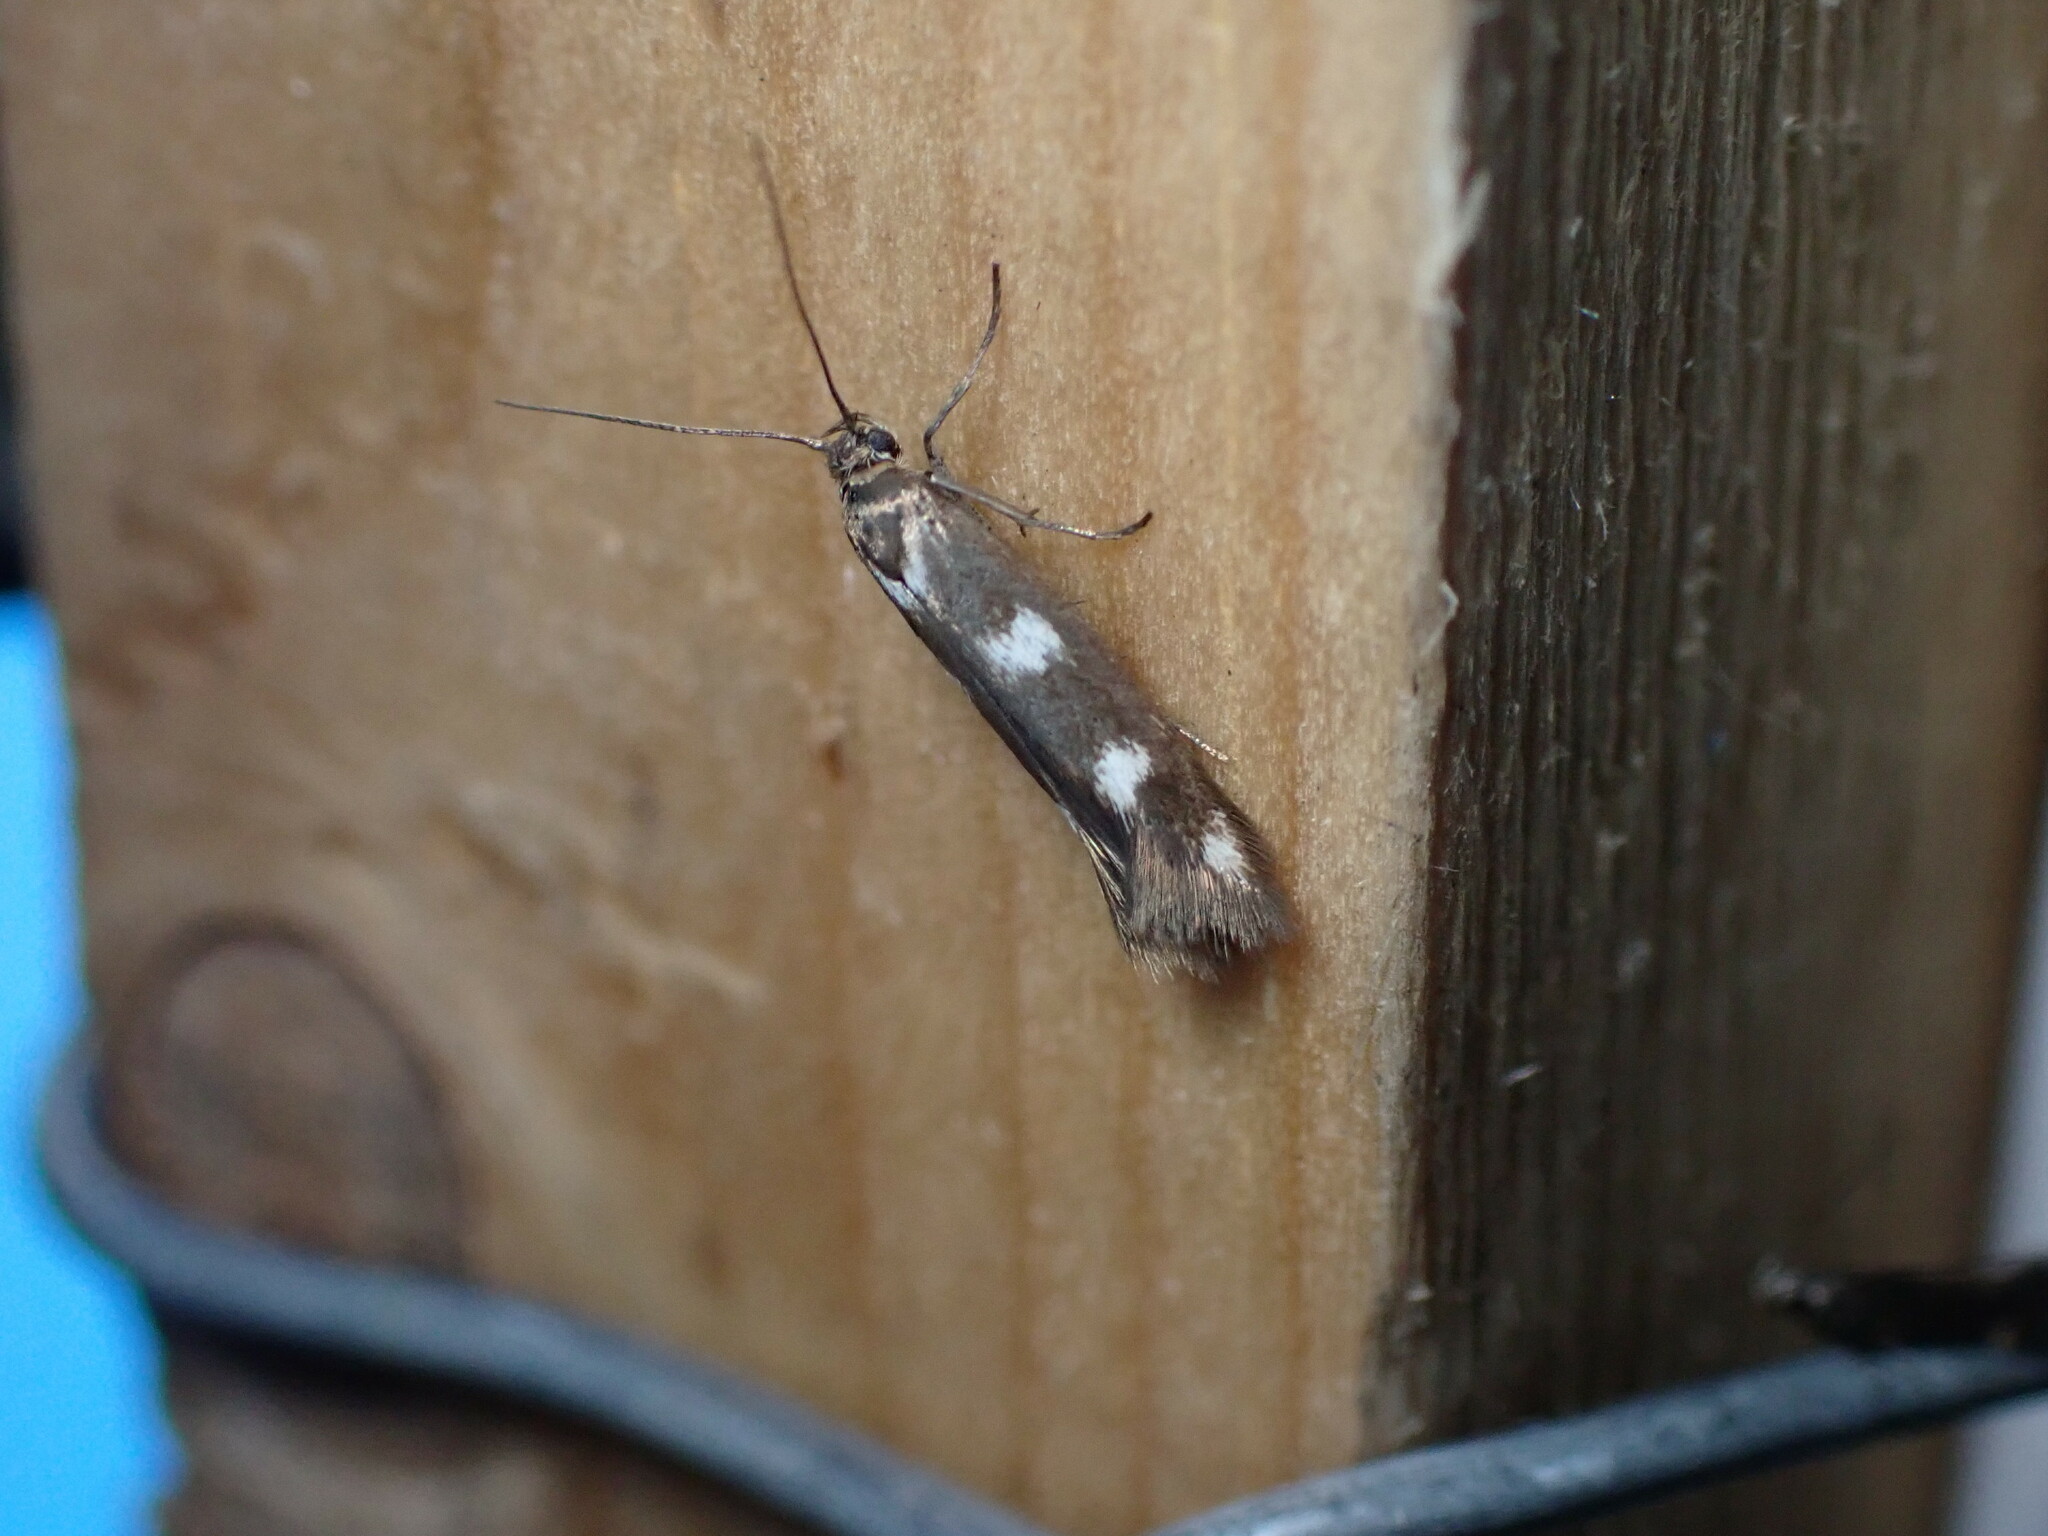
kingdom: Animalia
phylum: Arthropoda
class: Insecta
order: Lepidoptera
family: Scythrididae
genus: Scythris
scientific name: Scythris scopolella
